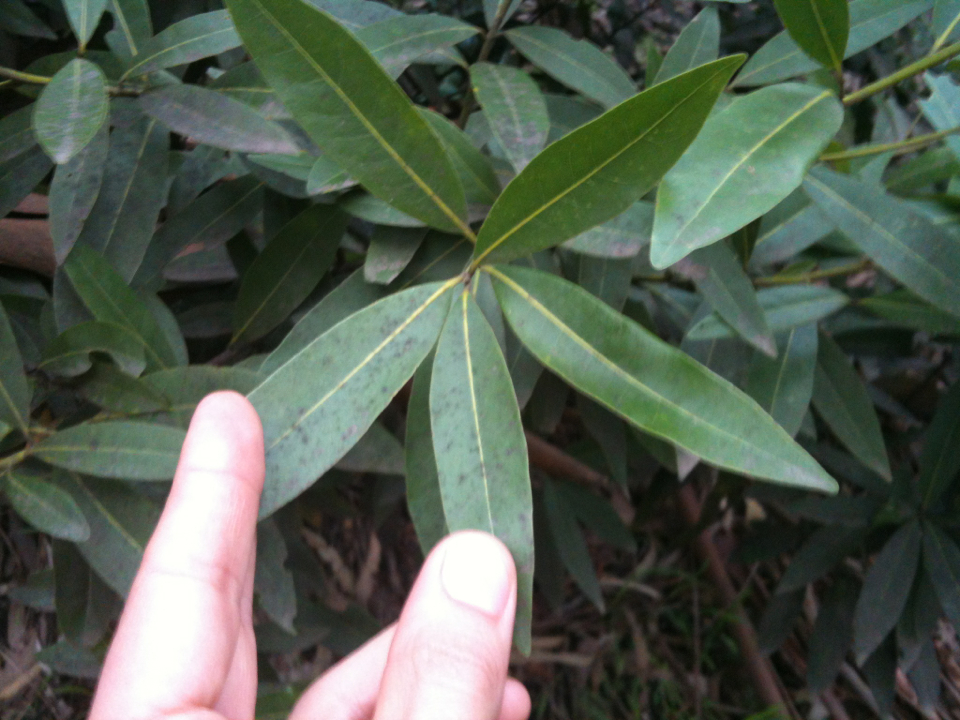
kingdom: Plantae
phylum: Tracheophyta
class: Magnoliopsida
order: Laurales
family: Lauraceae
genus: Umbellularia
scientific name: Umbellularia californica
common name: California bay
